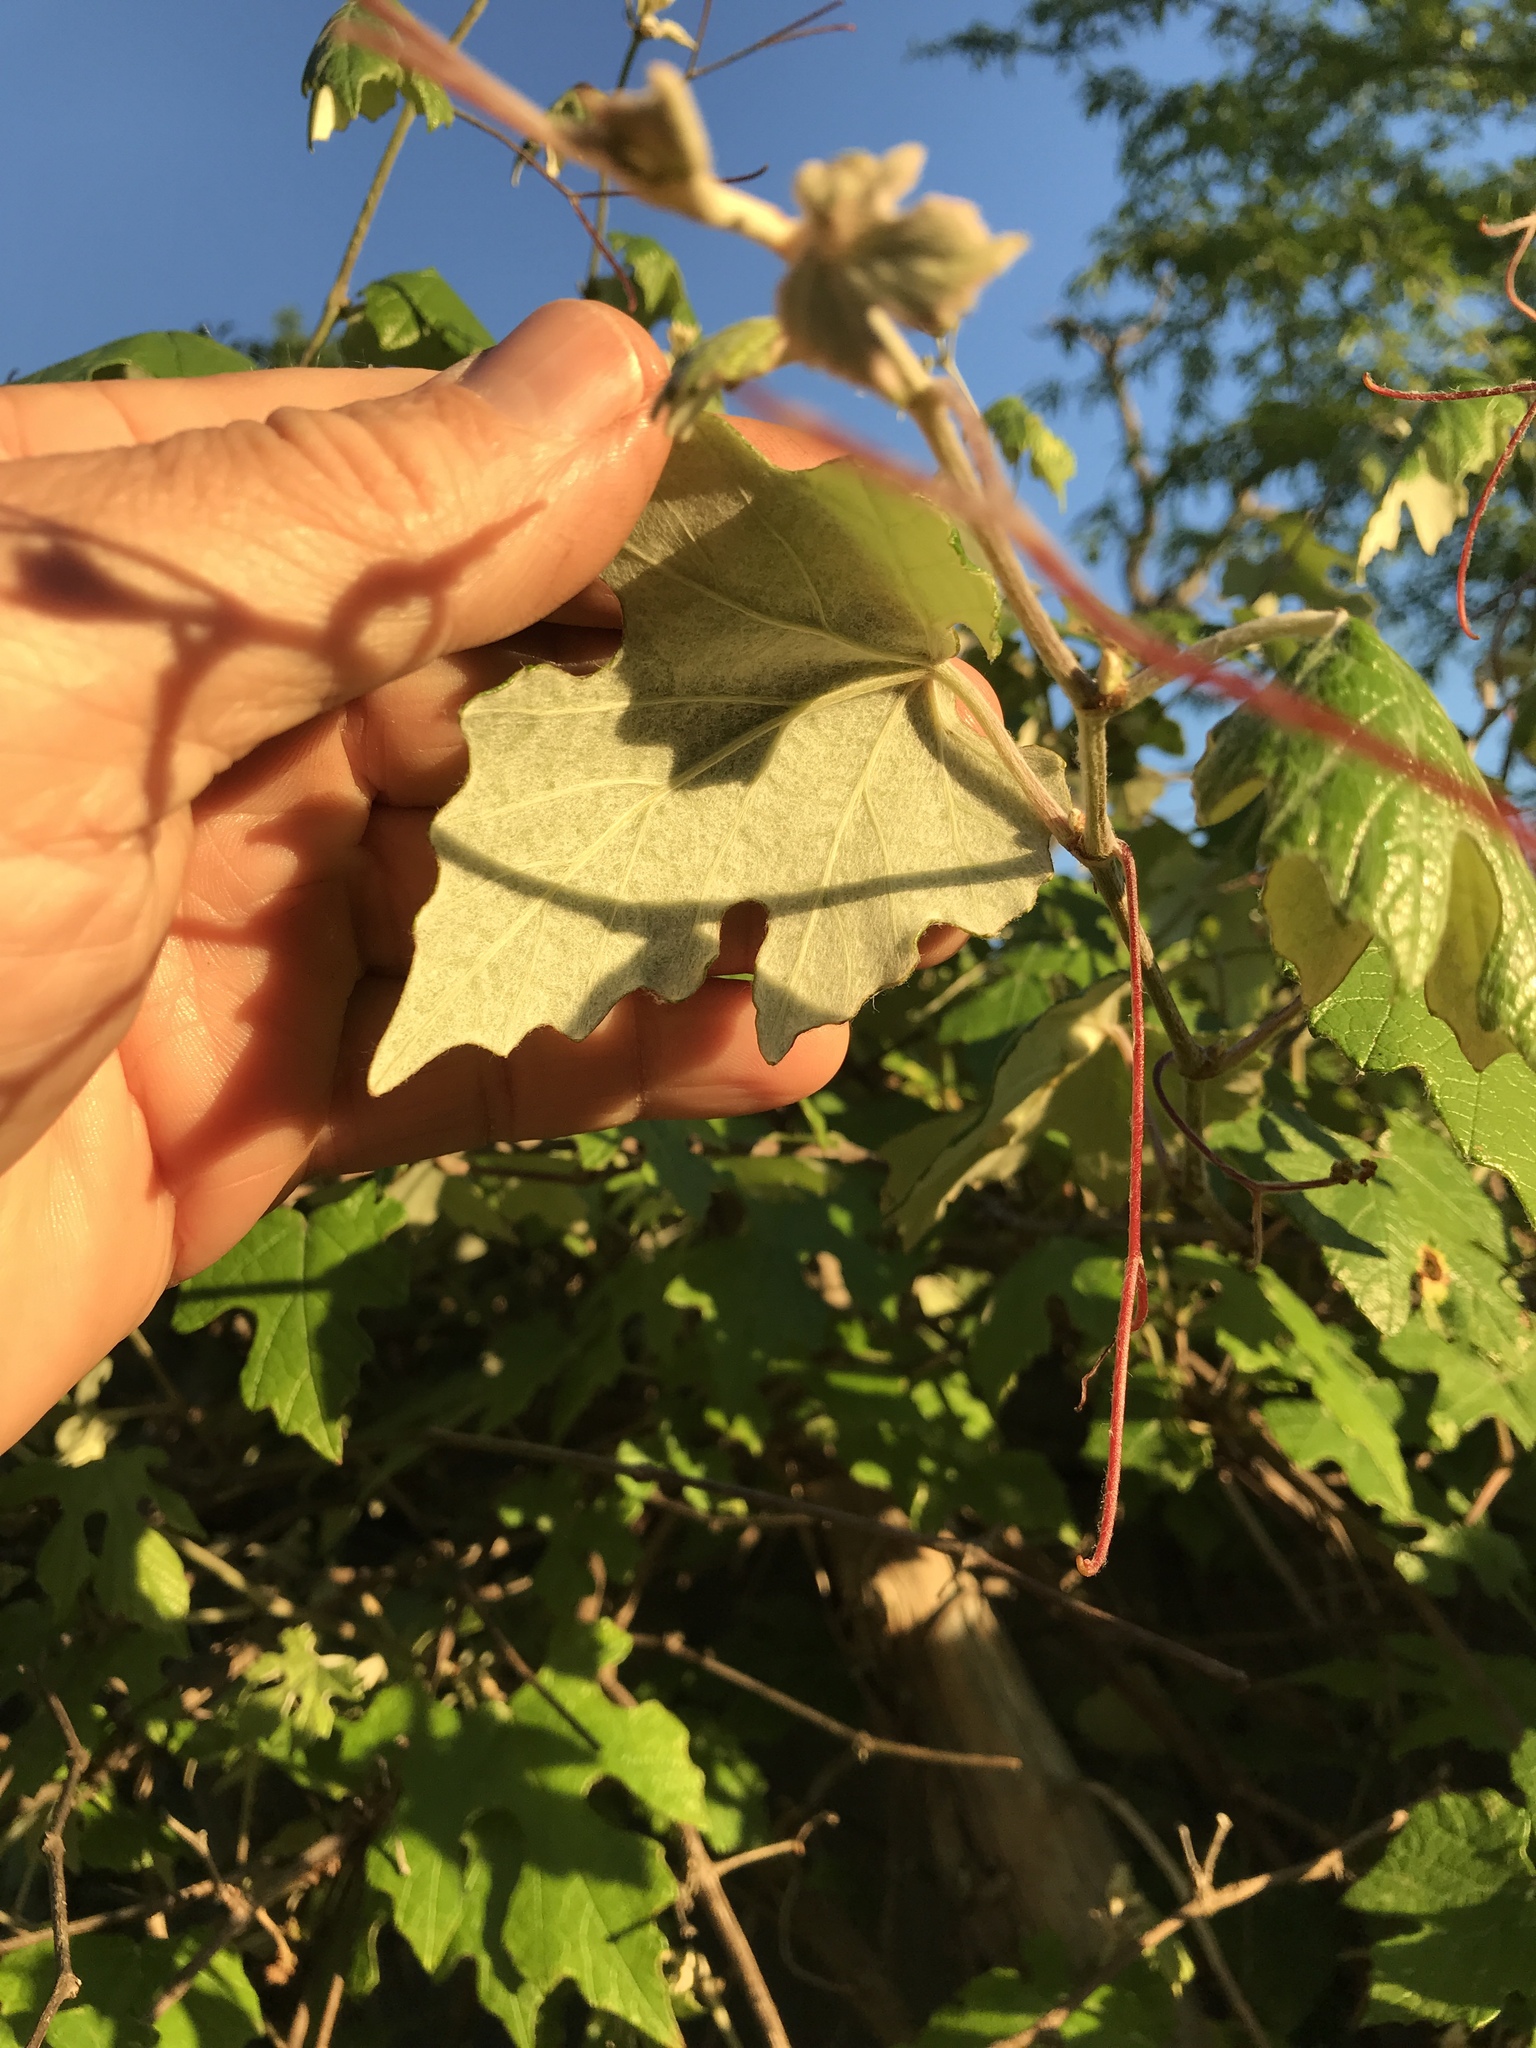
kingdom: Plantae
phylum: Tracheophyta
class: Magnoliopsida
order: Vitales
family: Vitaceae
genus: Vitis
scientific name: Vitis mustangensis
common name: Mustang grape
